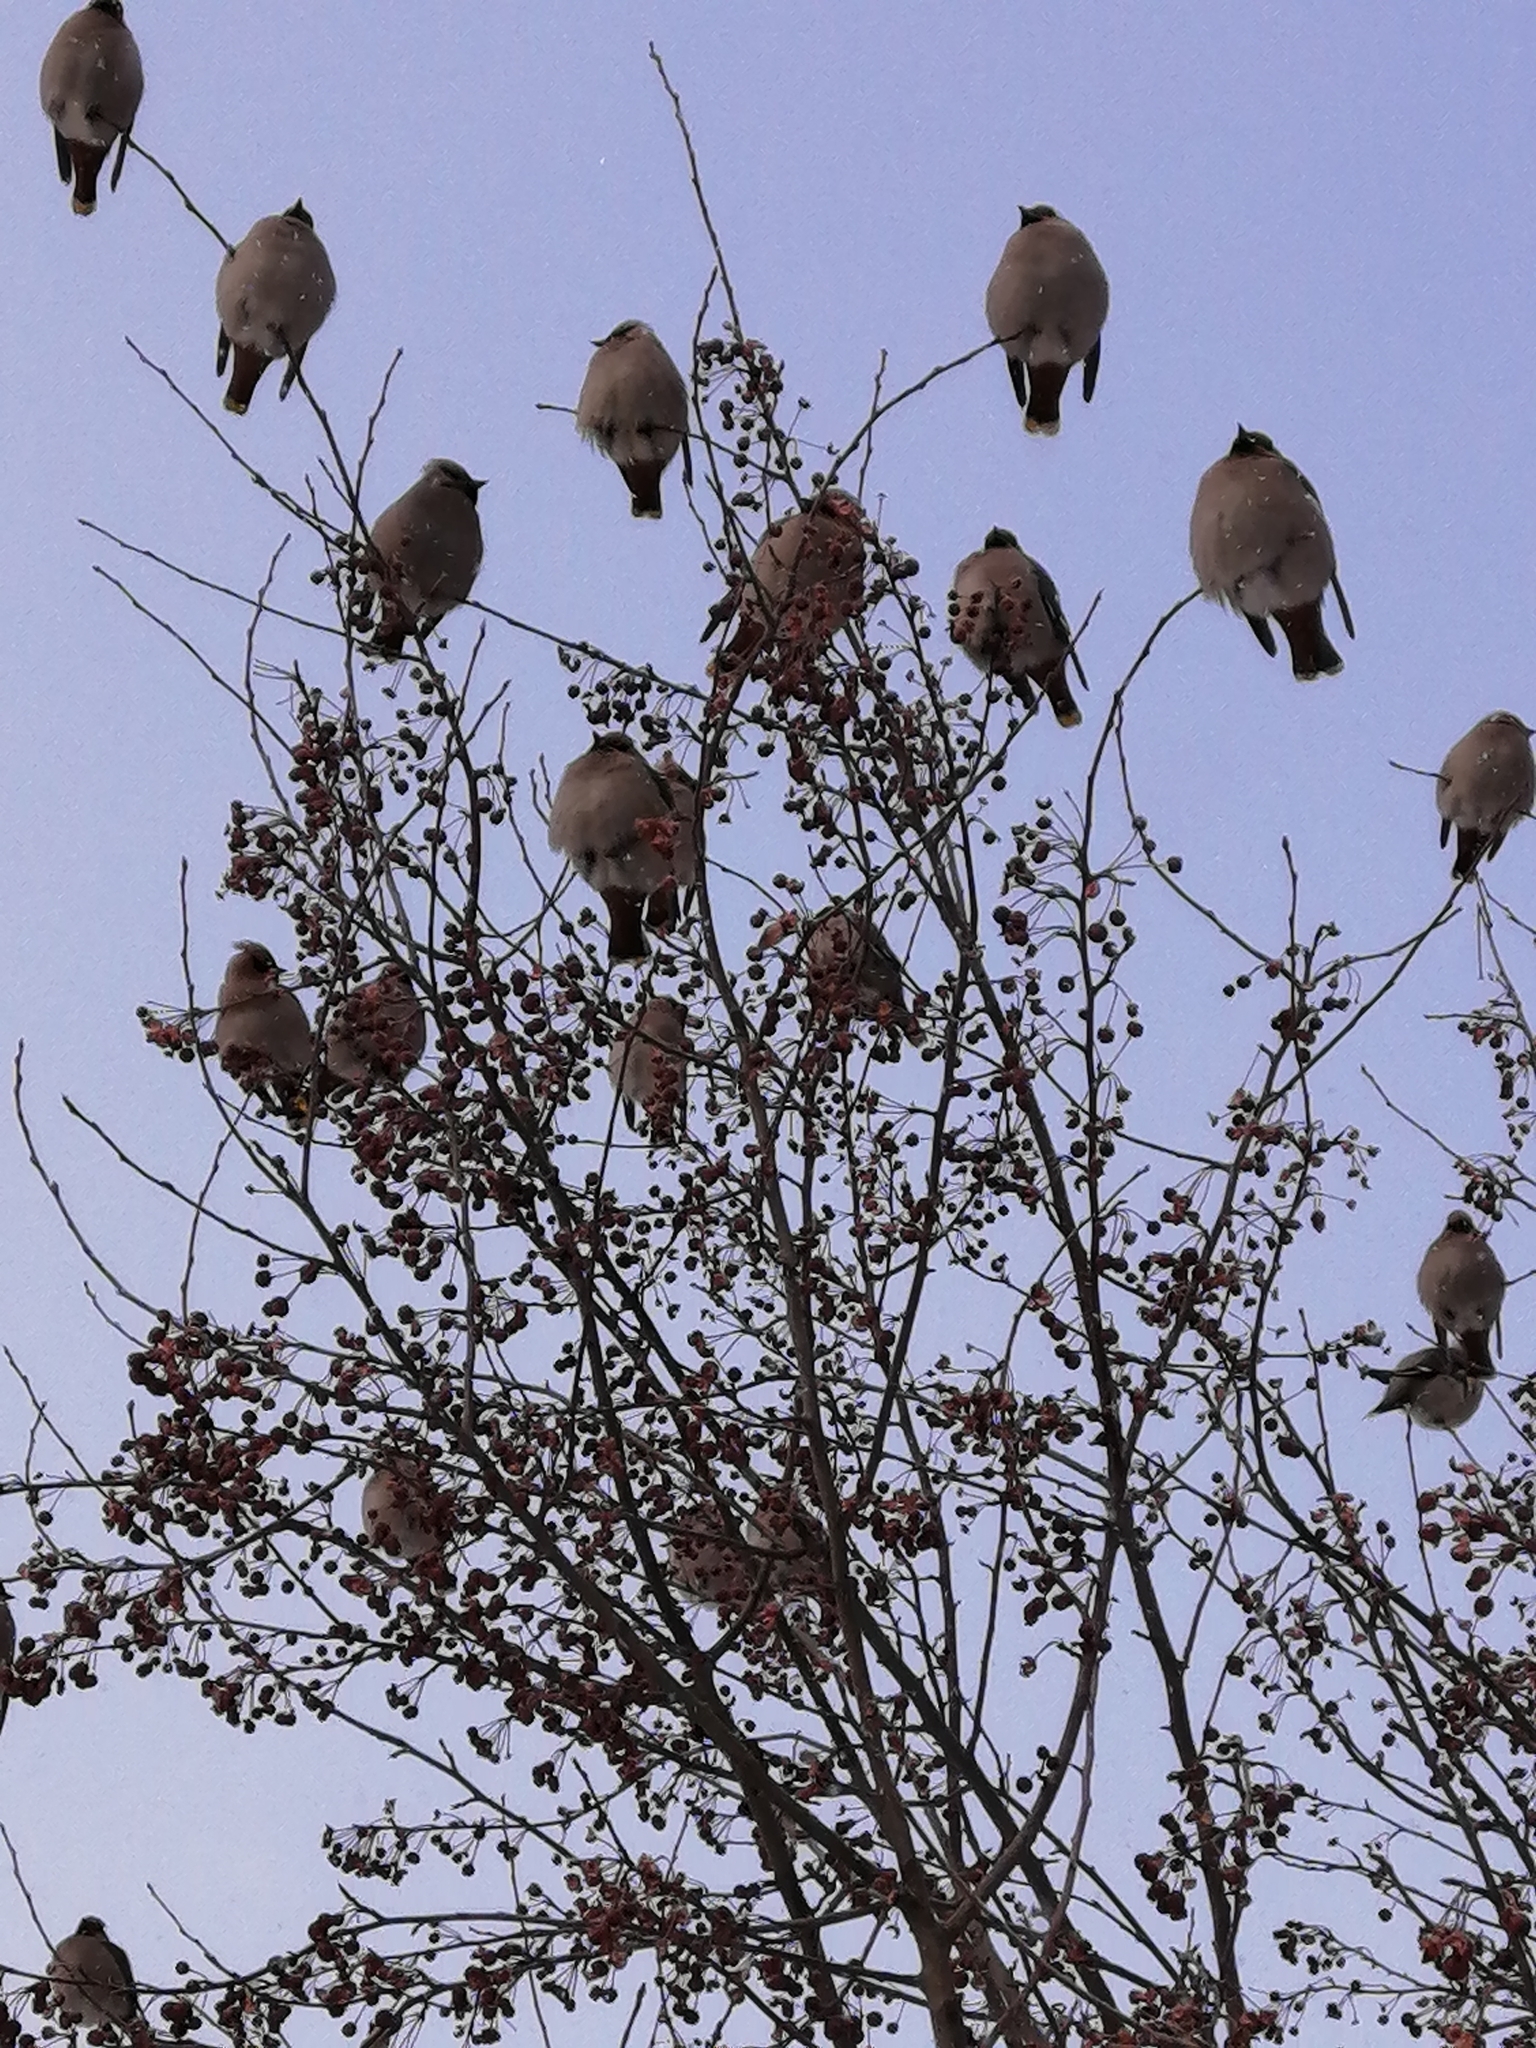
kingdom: Animalia
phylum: Chordata
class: Aves
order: Passeriformes
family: Bombycillidae
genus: Bombycilla
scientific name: Bombycilla garrulus
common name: Bohemian waxwing
